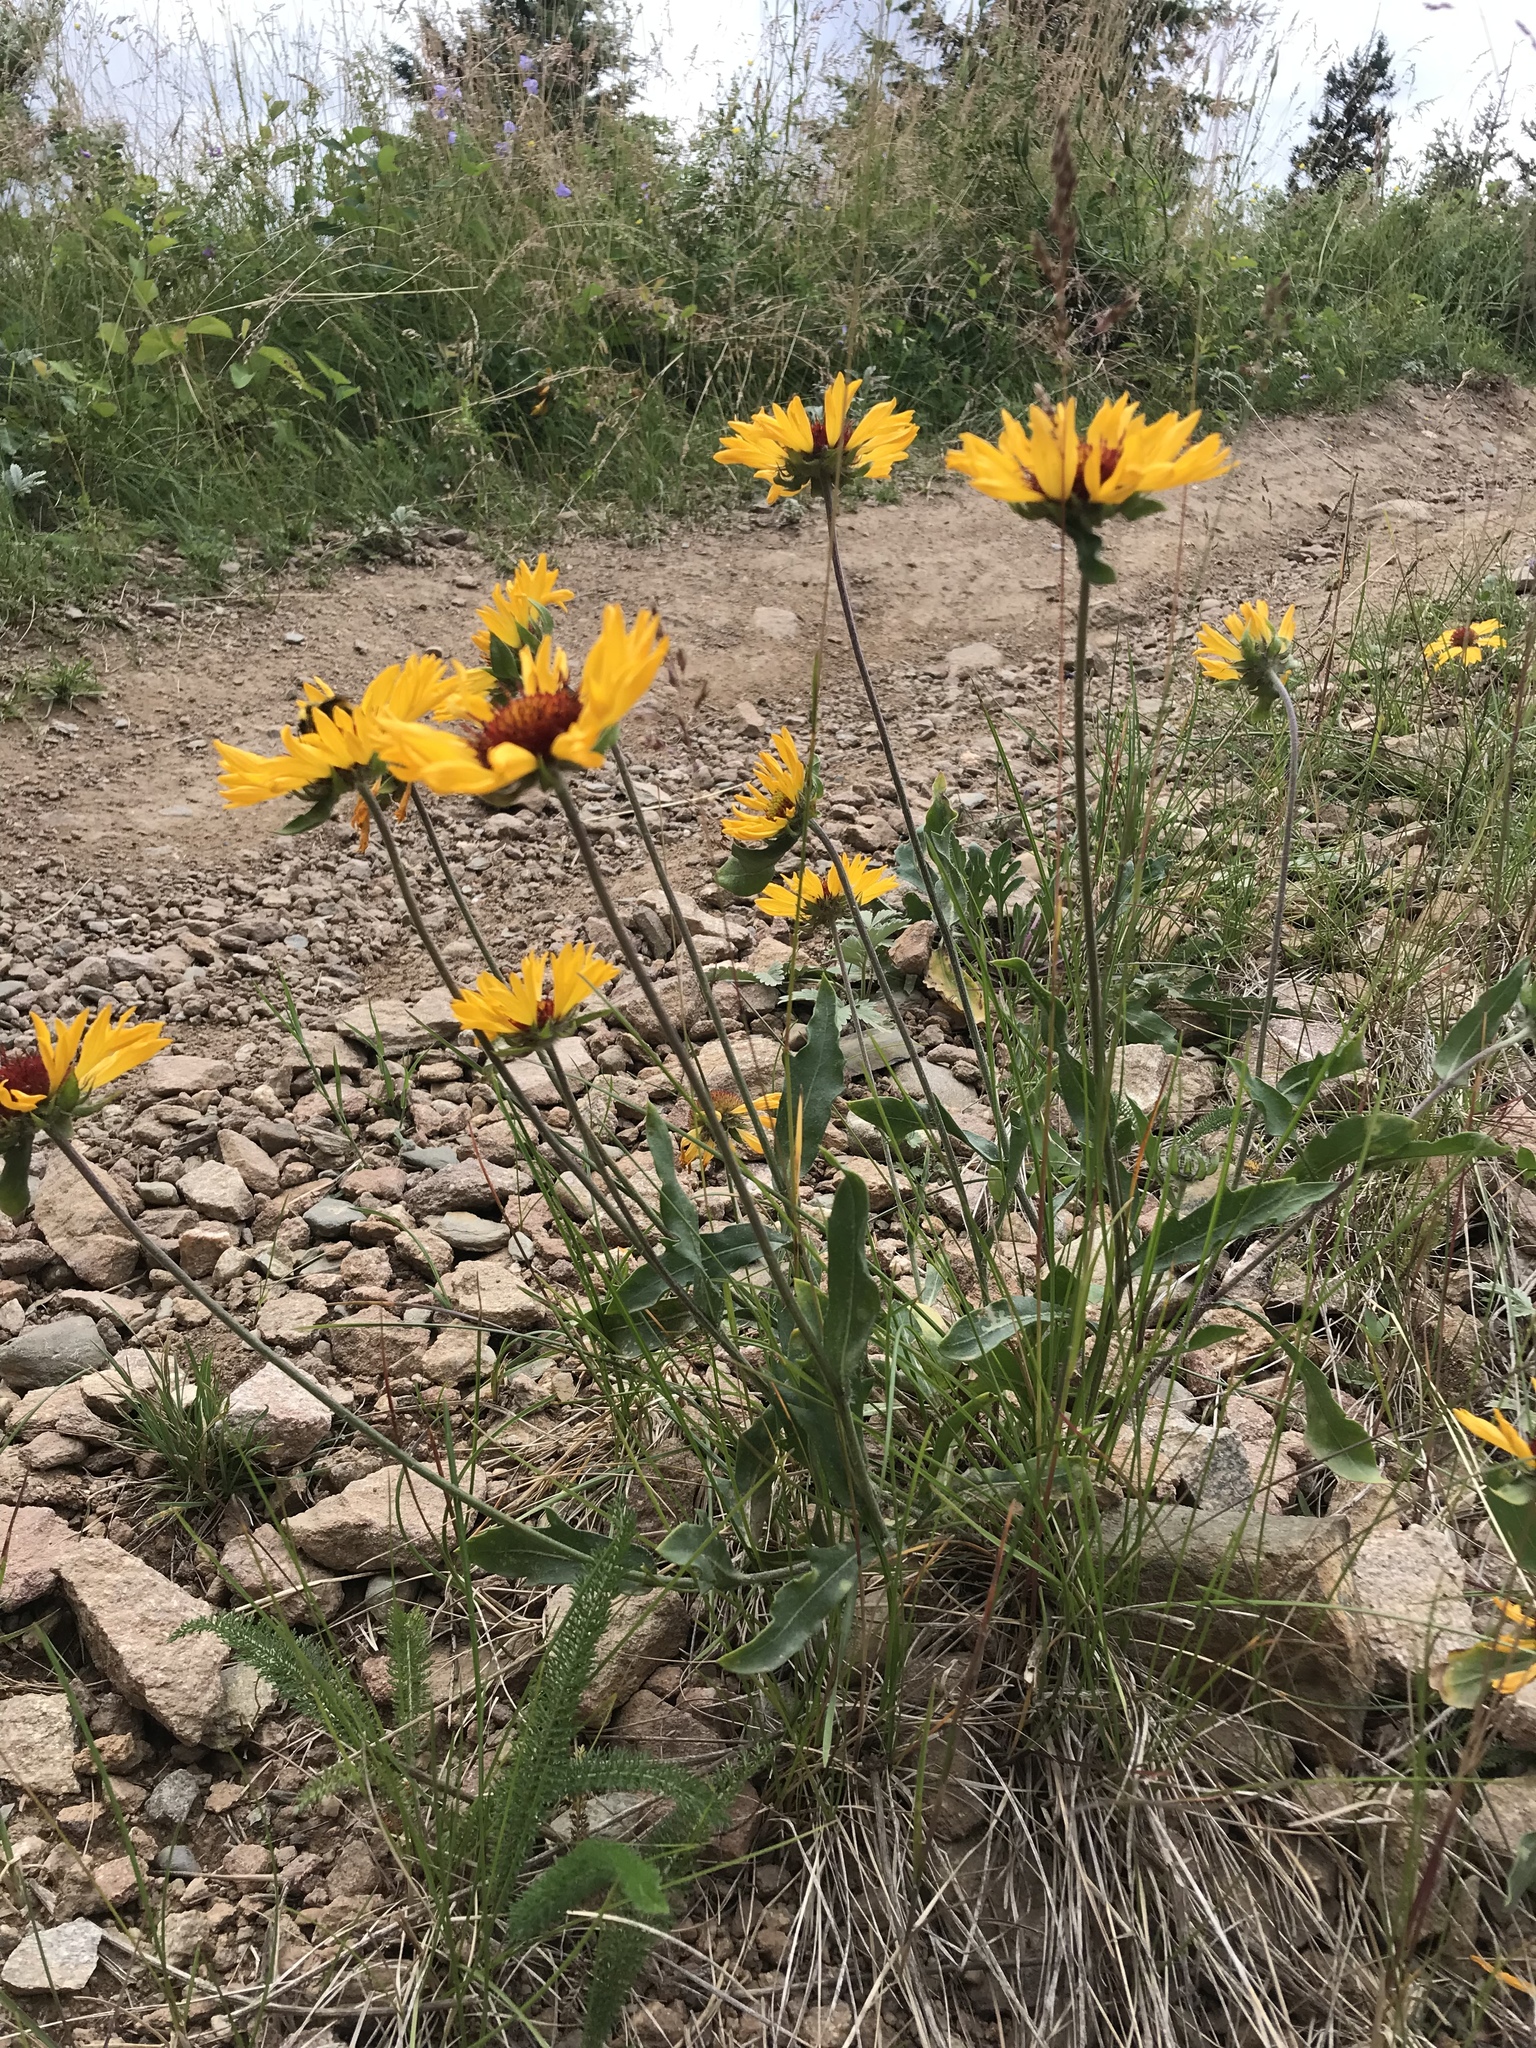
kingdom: Plantae
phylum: Tracheophyta
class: Magnoliopsida
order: Asterales
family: Asteraceae
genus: Gaillardia
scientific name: Gaillardia aristata
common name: Blanket-flower
